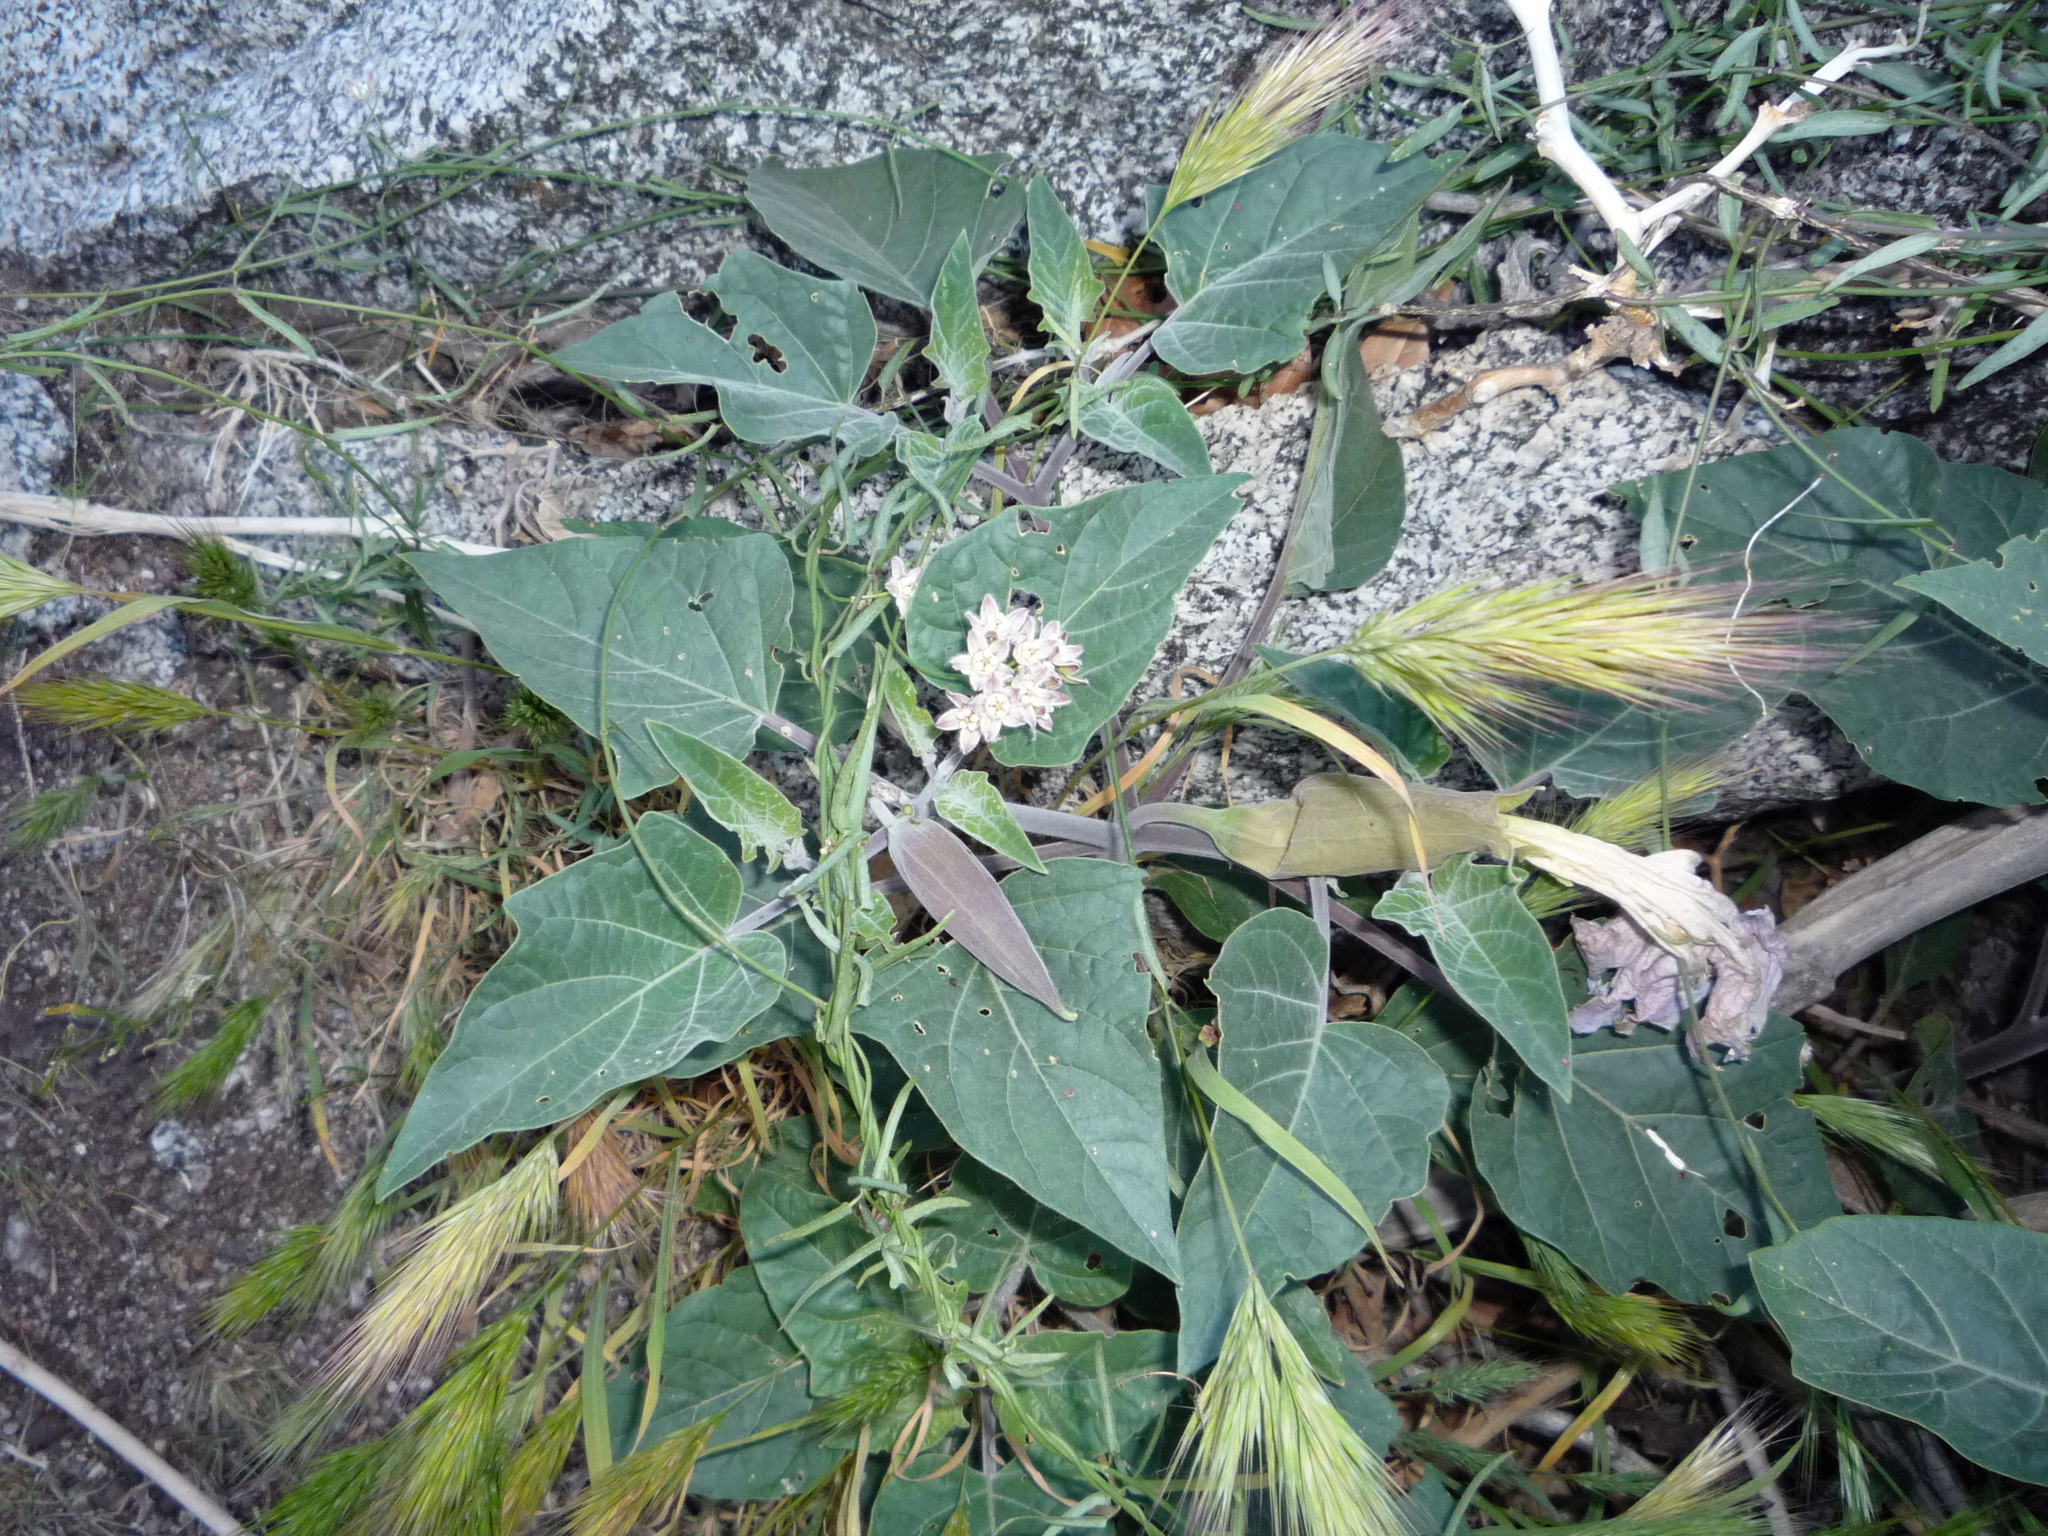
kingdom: Plantae
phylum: Tracheophyta
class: Magnoliopsida
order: Solanales
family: Solanaceae
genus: Datura
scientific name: Datura wrightii
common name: Sacred thorn-apple
